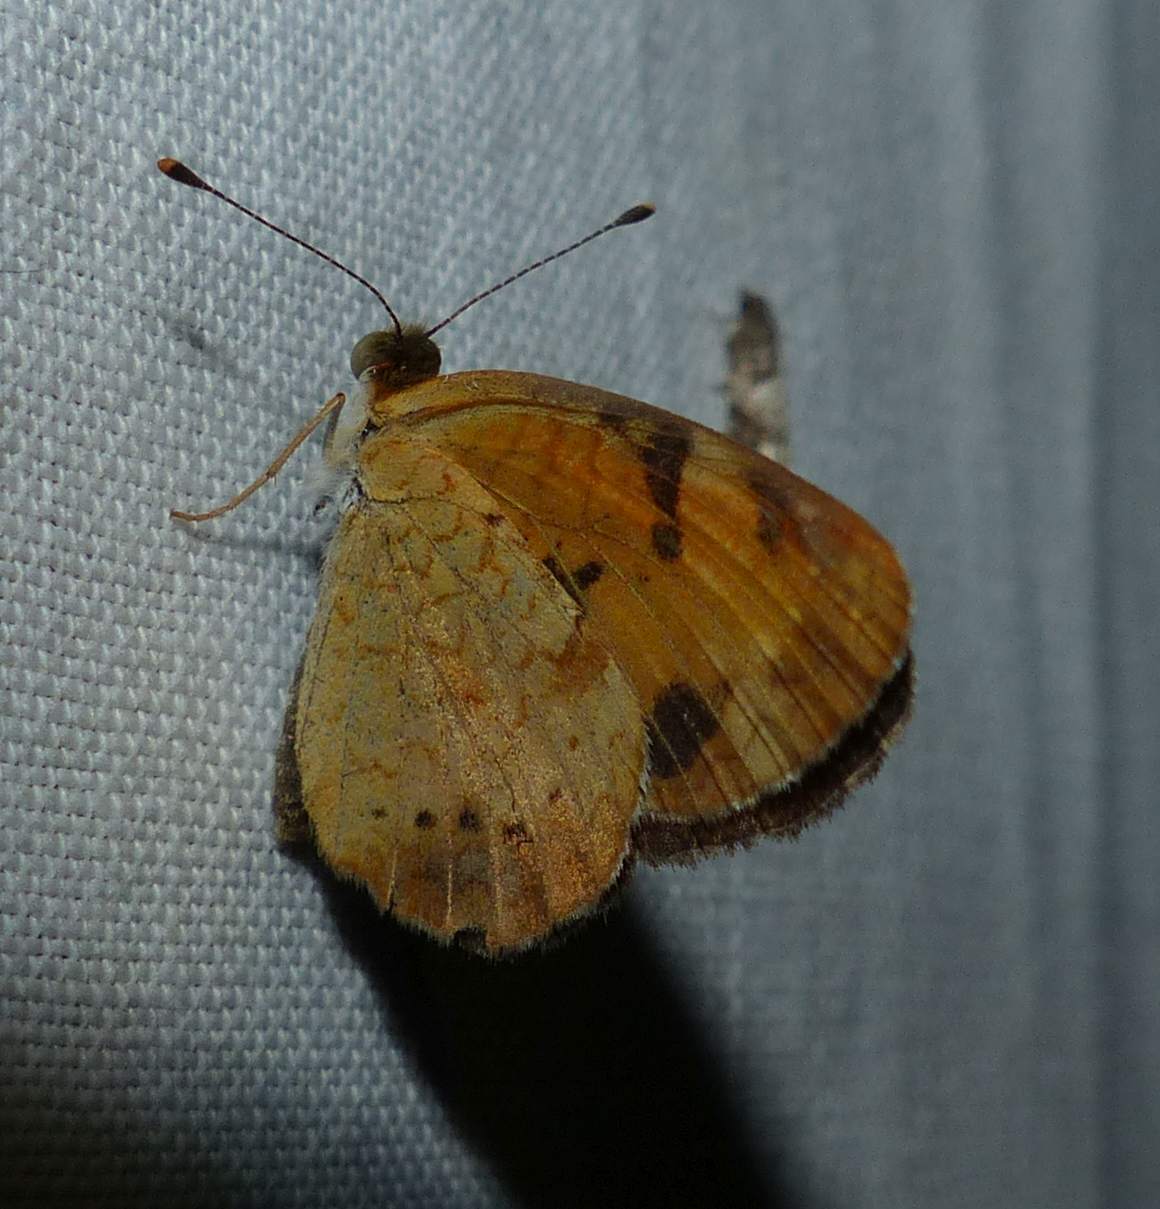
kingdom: Animalia
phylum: Arthropoda
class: Insecta
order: Lepidoptera
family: Nymphalidae
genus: Phyciodes
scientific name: Phyciodes tharos
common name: Pearl crescent
